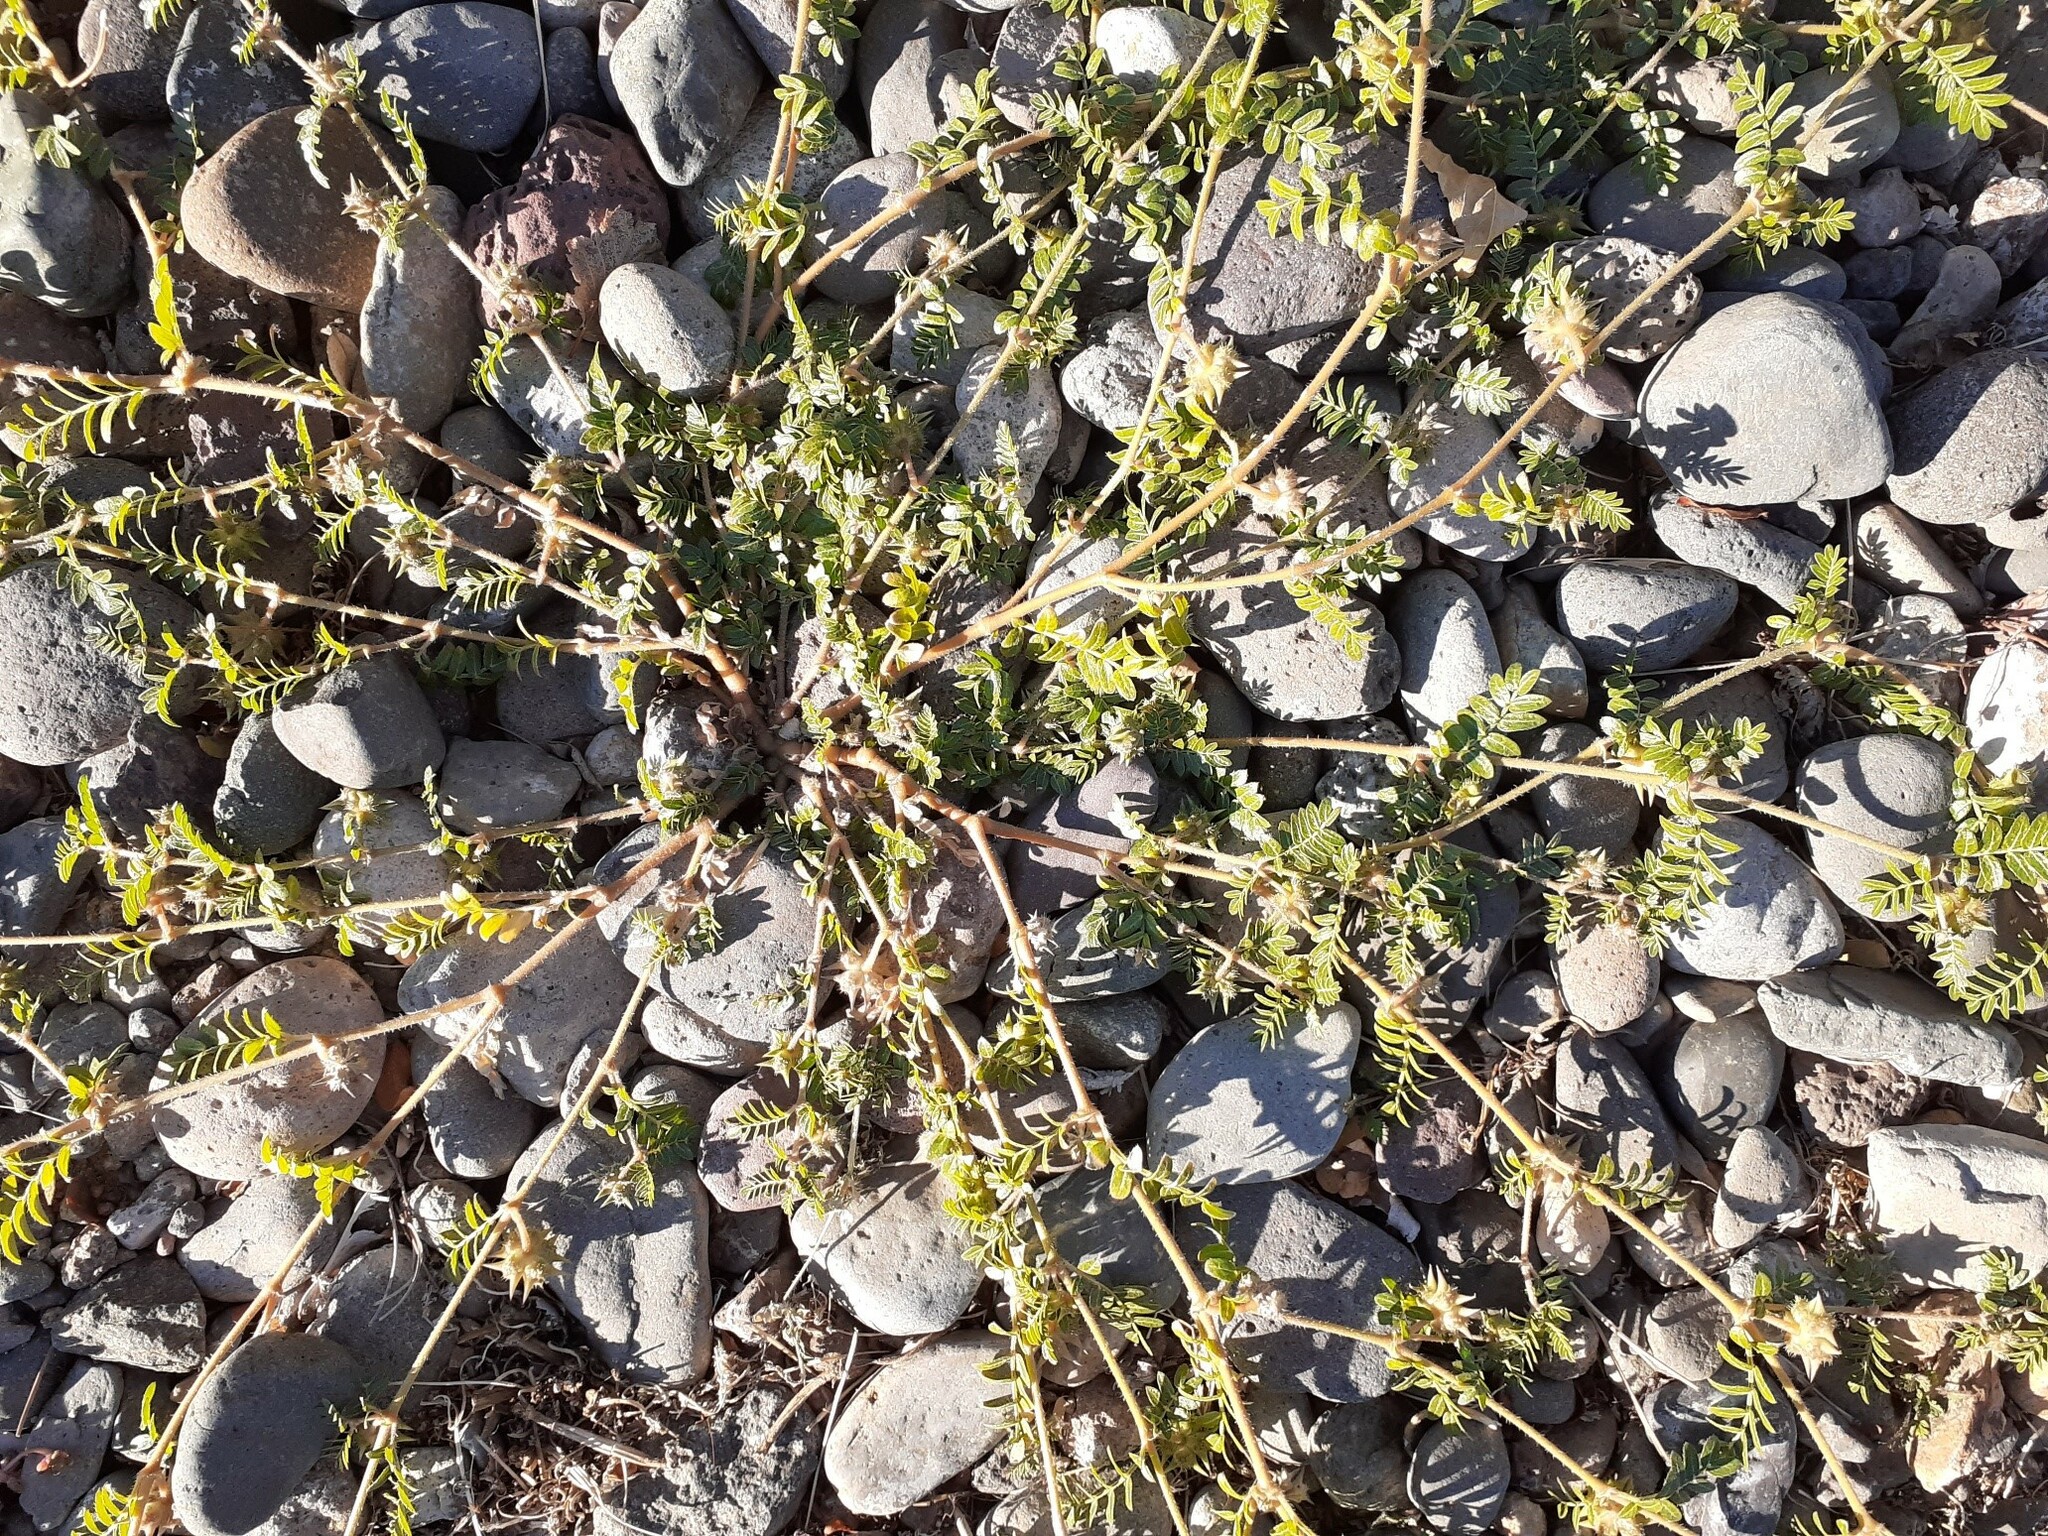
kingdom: Plantae
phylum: Tracheophyta
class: Magnoliopsida
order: Zygophyllales
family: Zygophyllaceae
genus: Tribulus
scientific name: Tribulus terrestris
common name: Puncturevine
